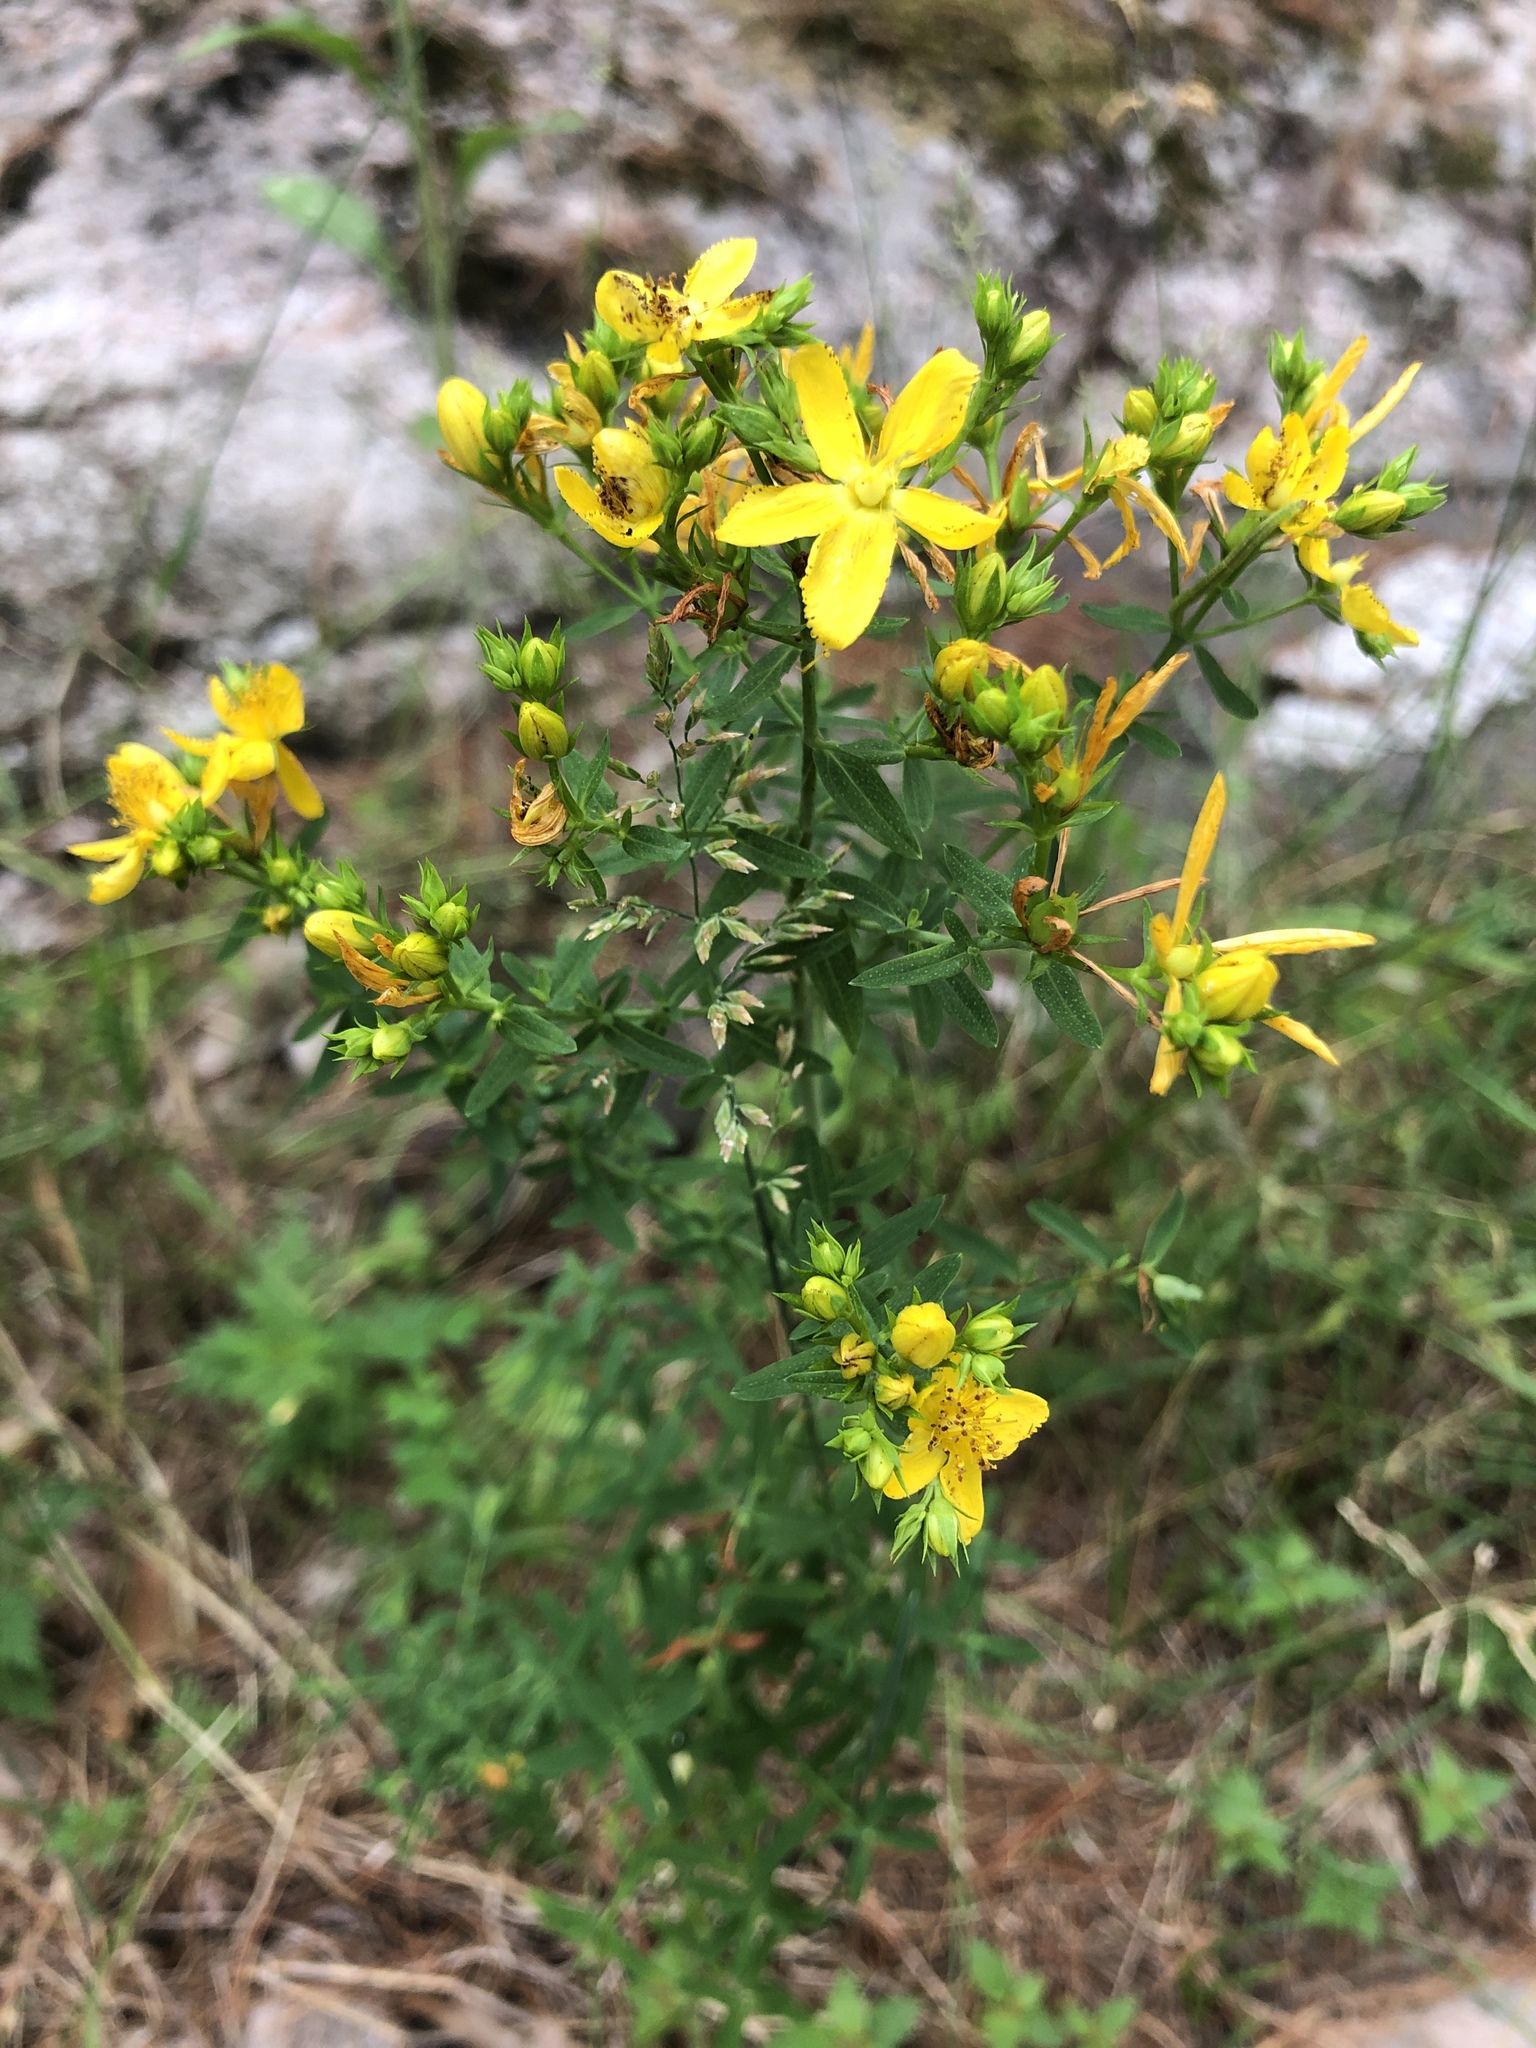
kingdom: Plantae
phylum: Tracheophyta
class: Magnoliopsida
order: Malpighiales
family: Hypericaceae
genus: Hypericum
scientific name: Hypericum perforatum
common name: Common st. johnswort
